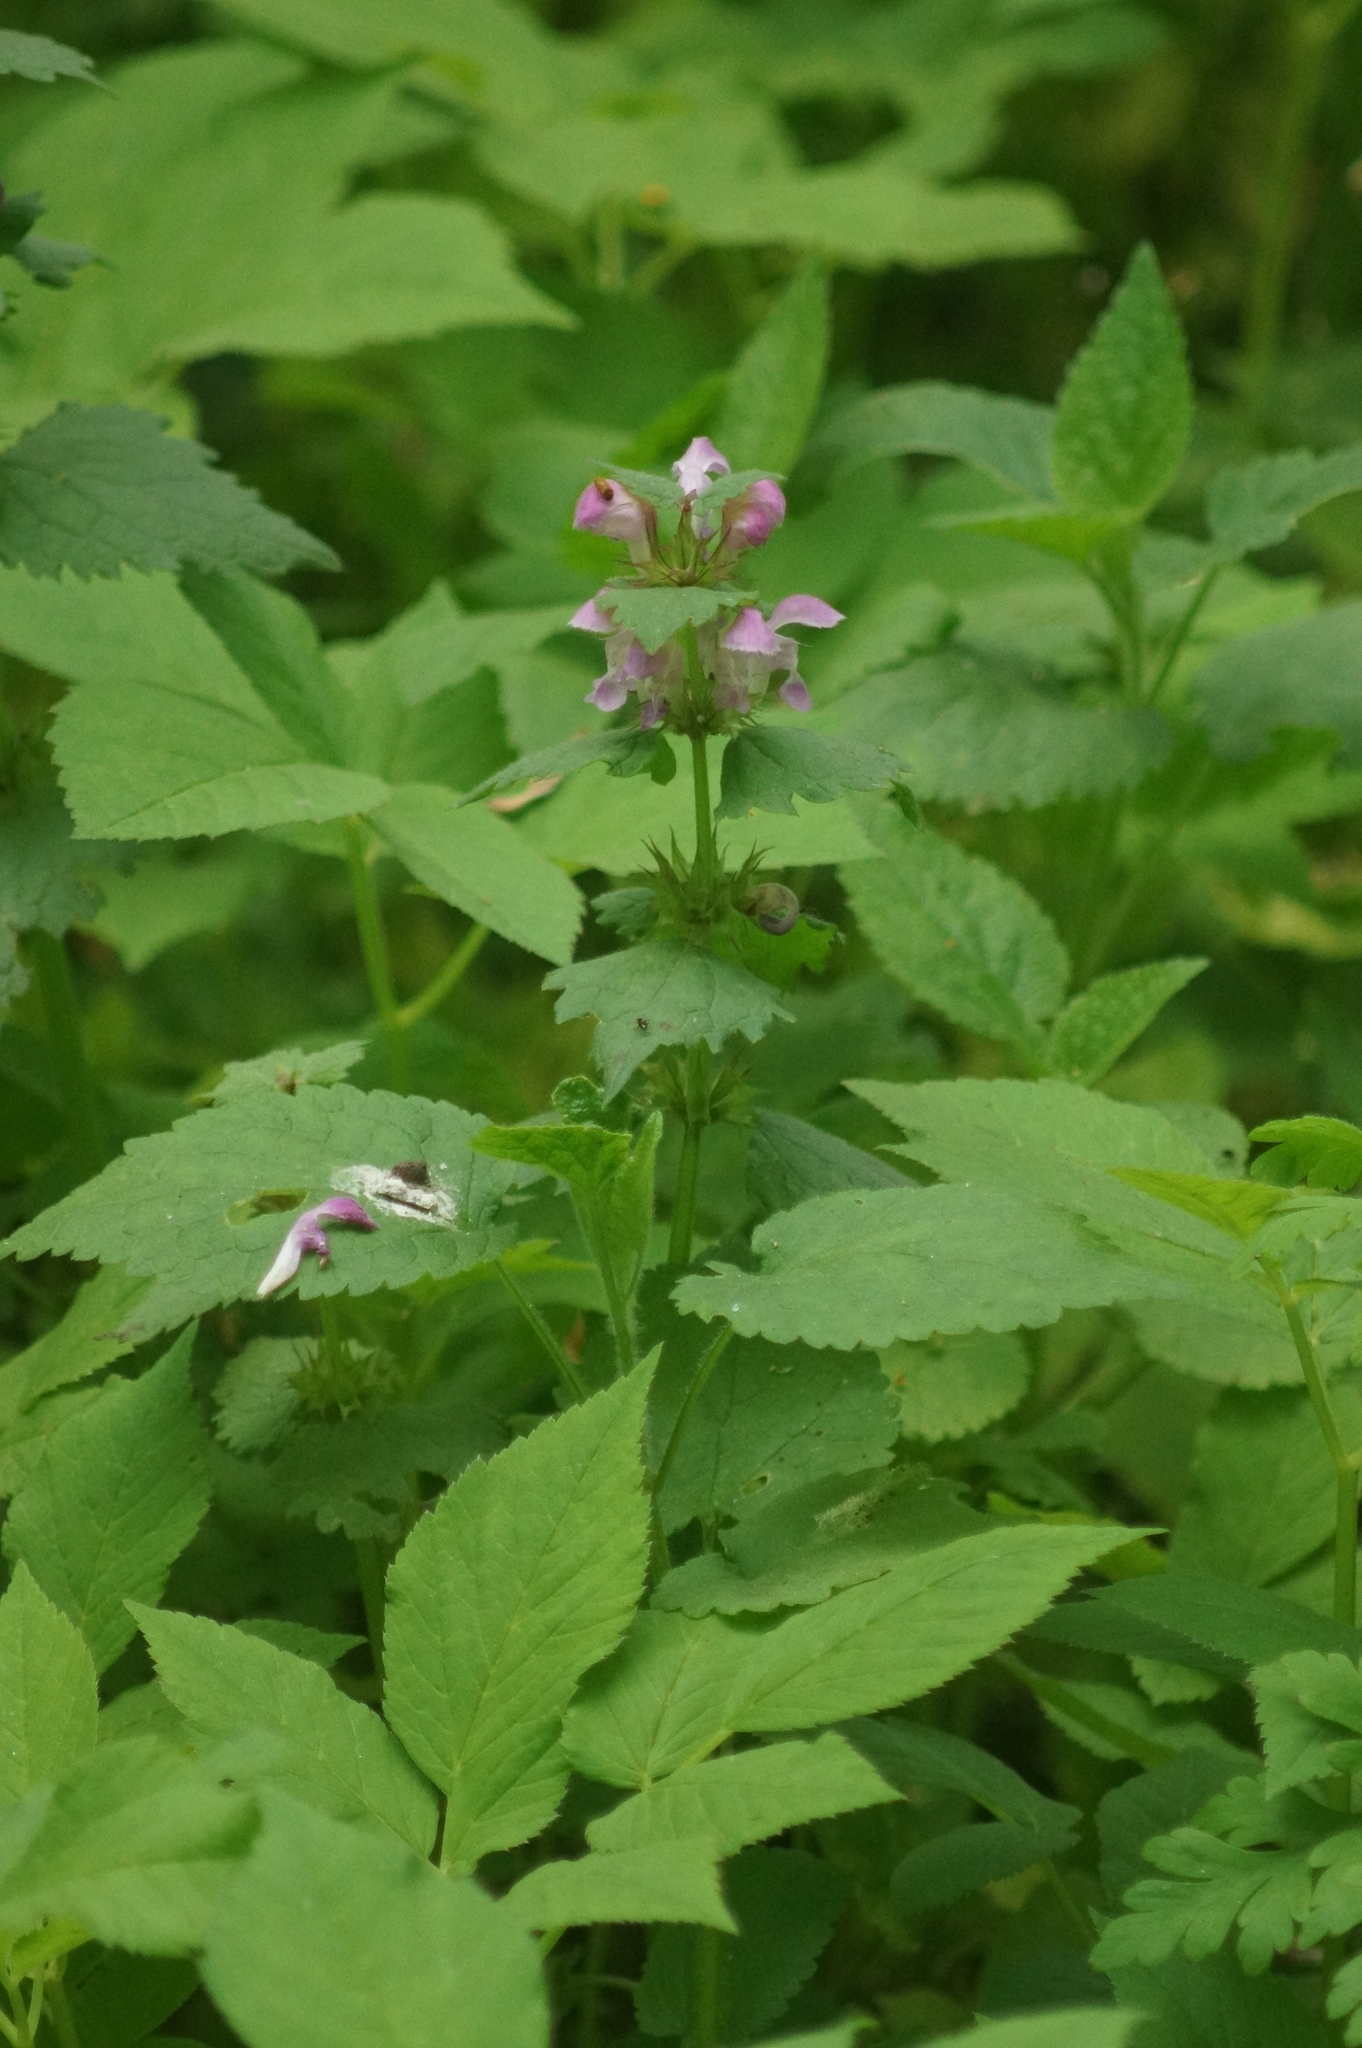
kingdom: Plantae
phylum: Tracheophyta
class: Magnoliopsida
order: Lamiales
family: Lamiaceae
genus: Lamium
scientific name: Lamium maculatum
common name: Spotted dead-nettle
